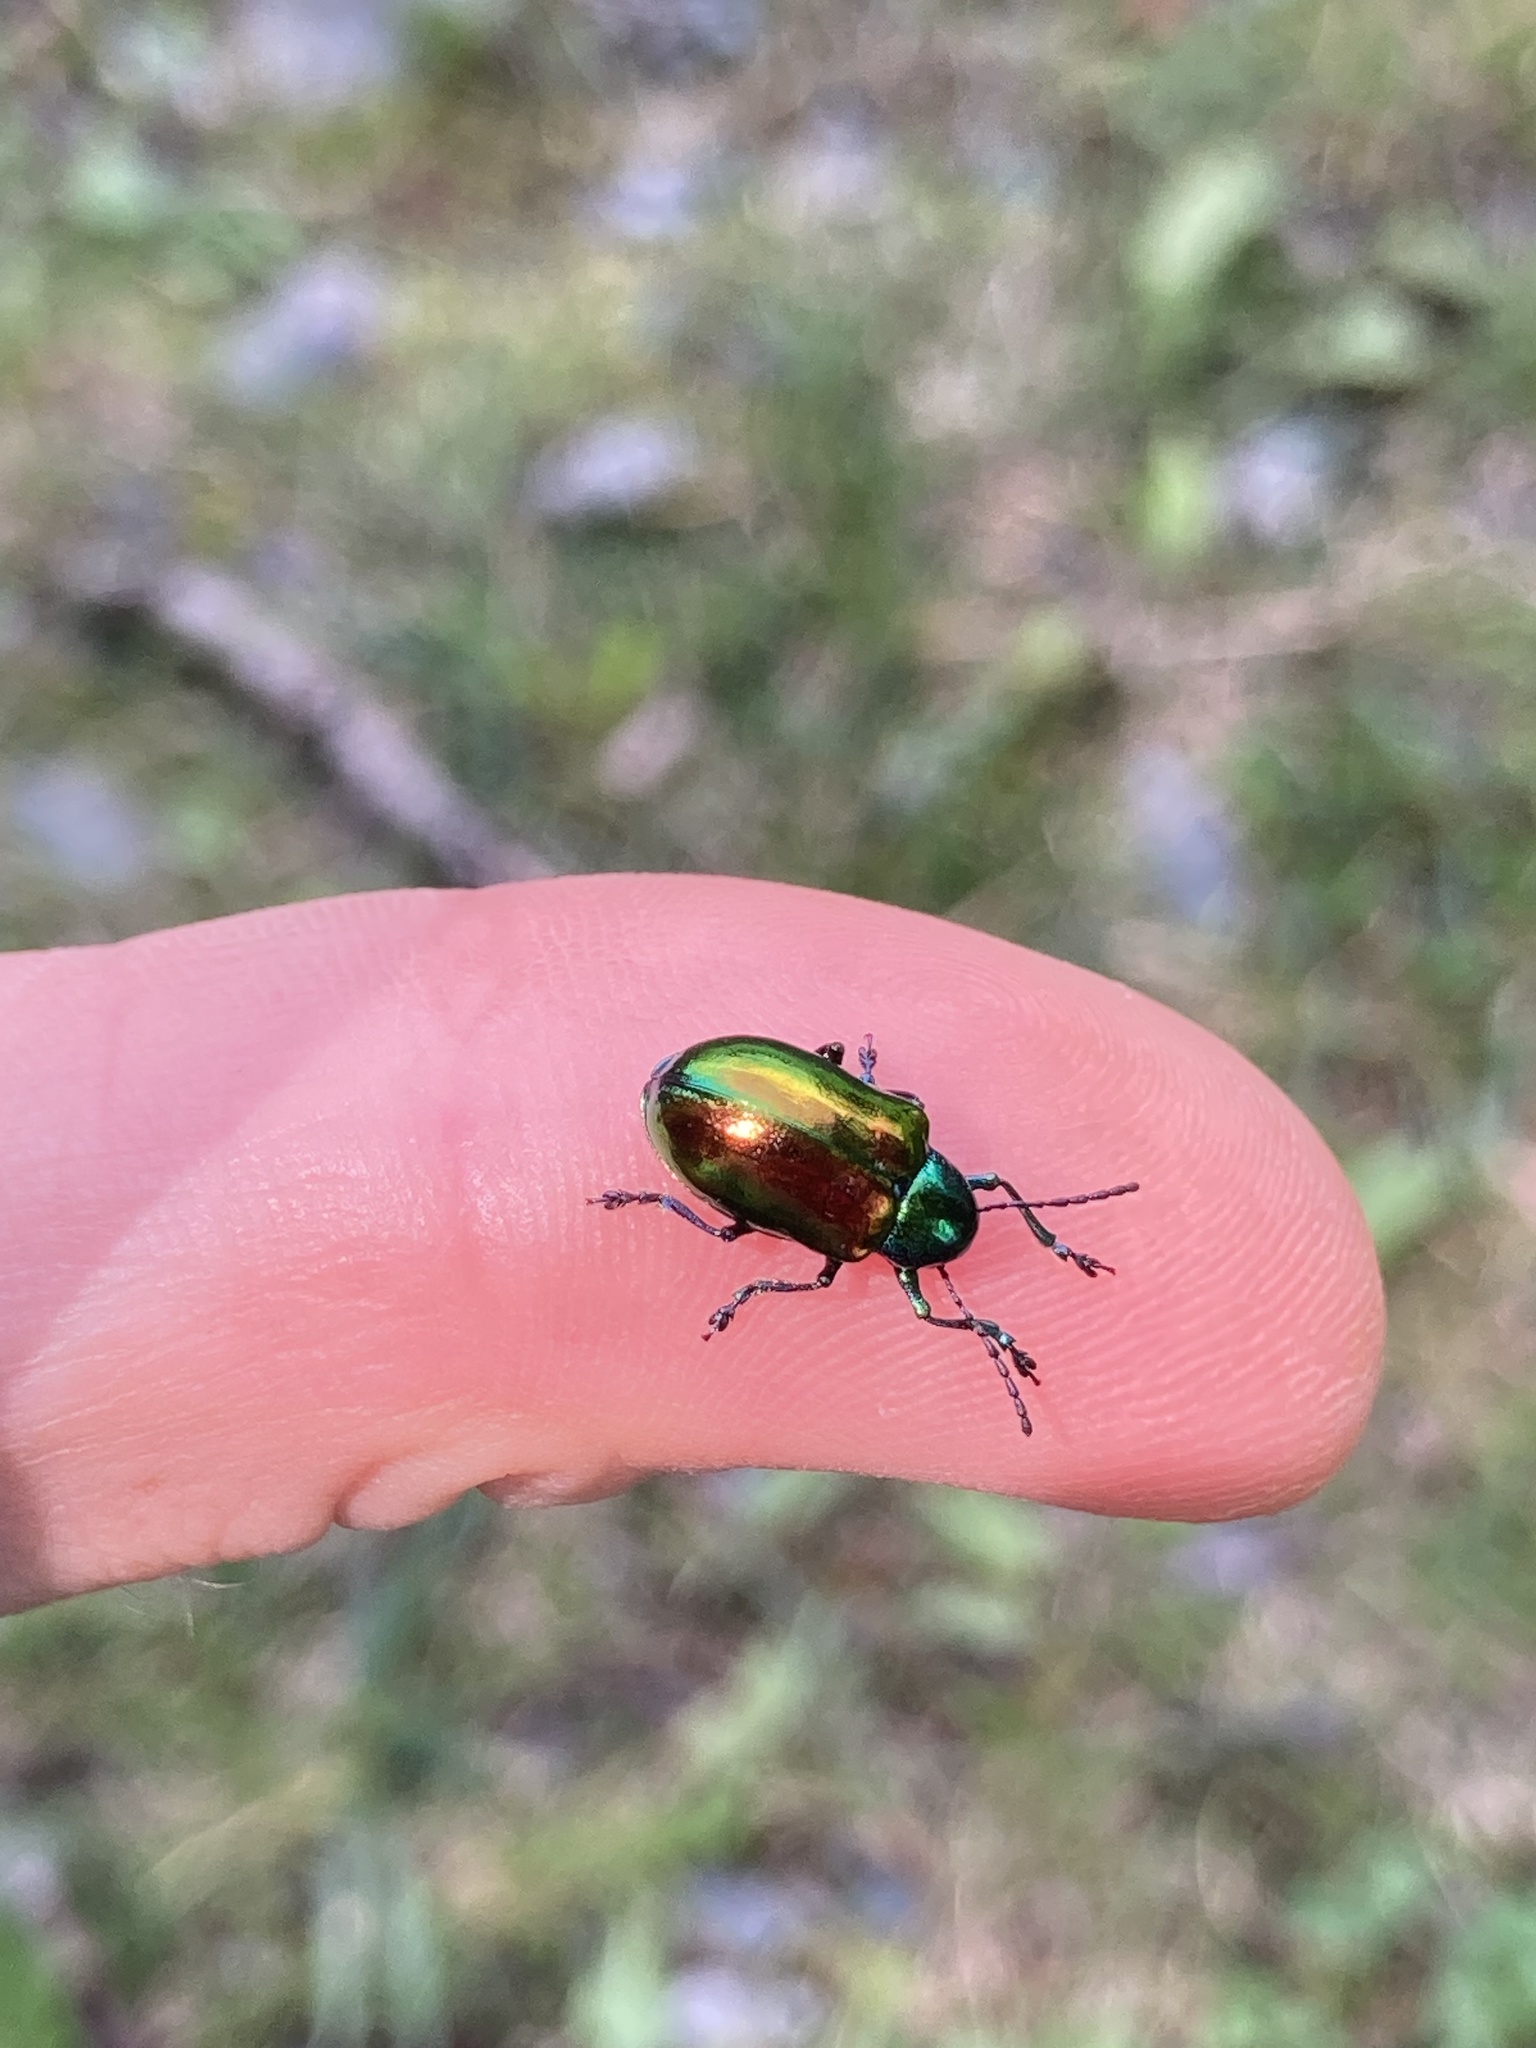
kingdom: Animalia
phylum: Arthropoda
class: Insecta
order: Coleoptera
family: Chrysomelidae
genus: Chrysochus
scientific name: Chrysochus auratus
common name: Dogbane leaf beetle
